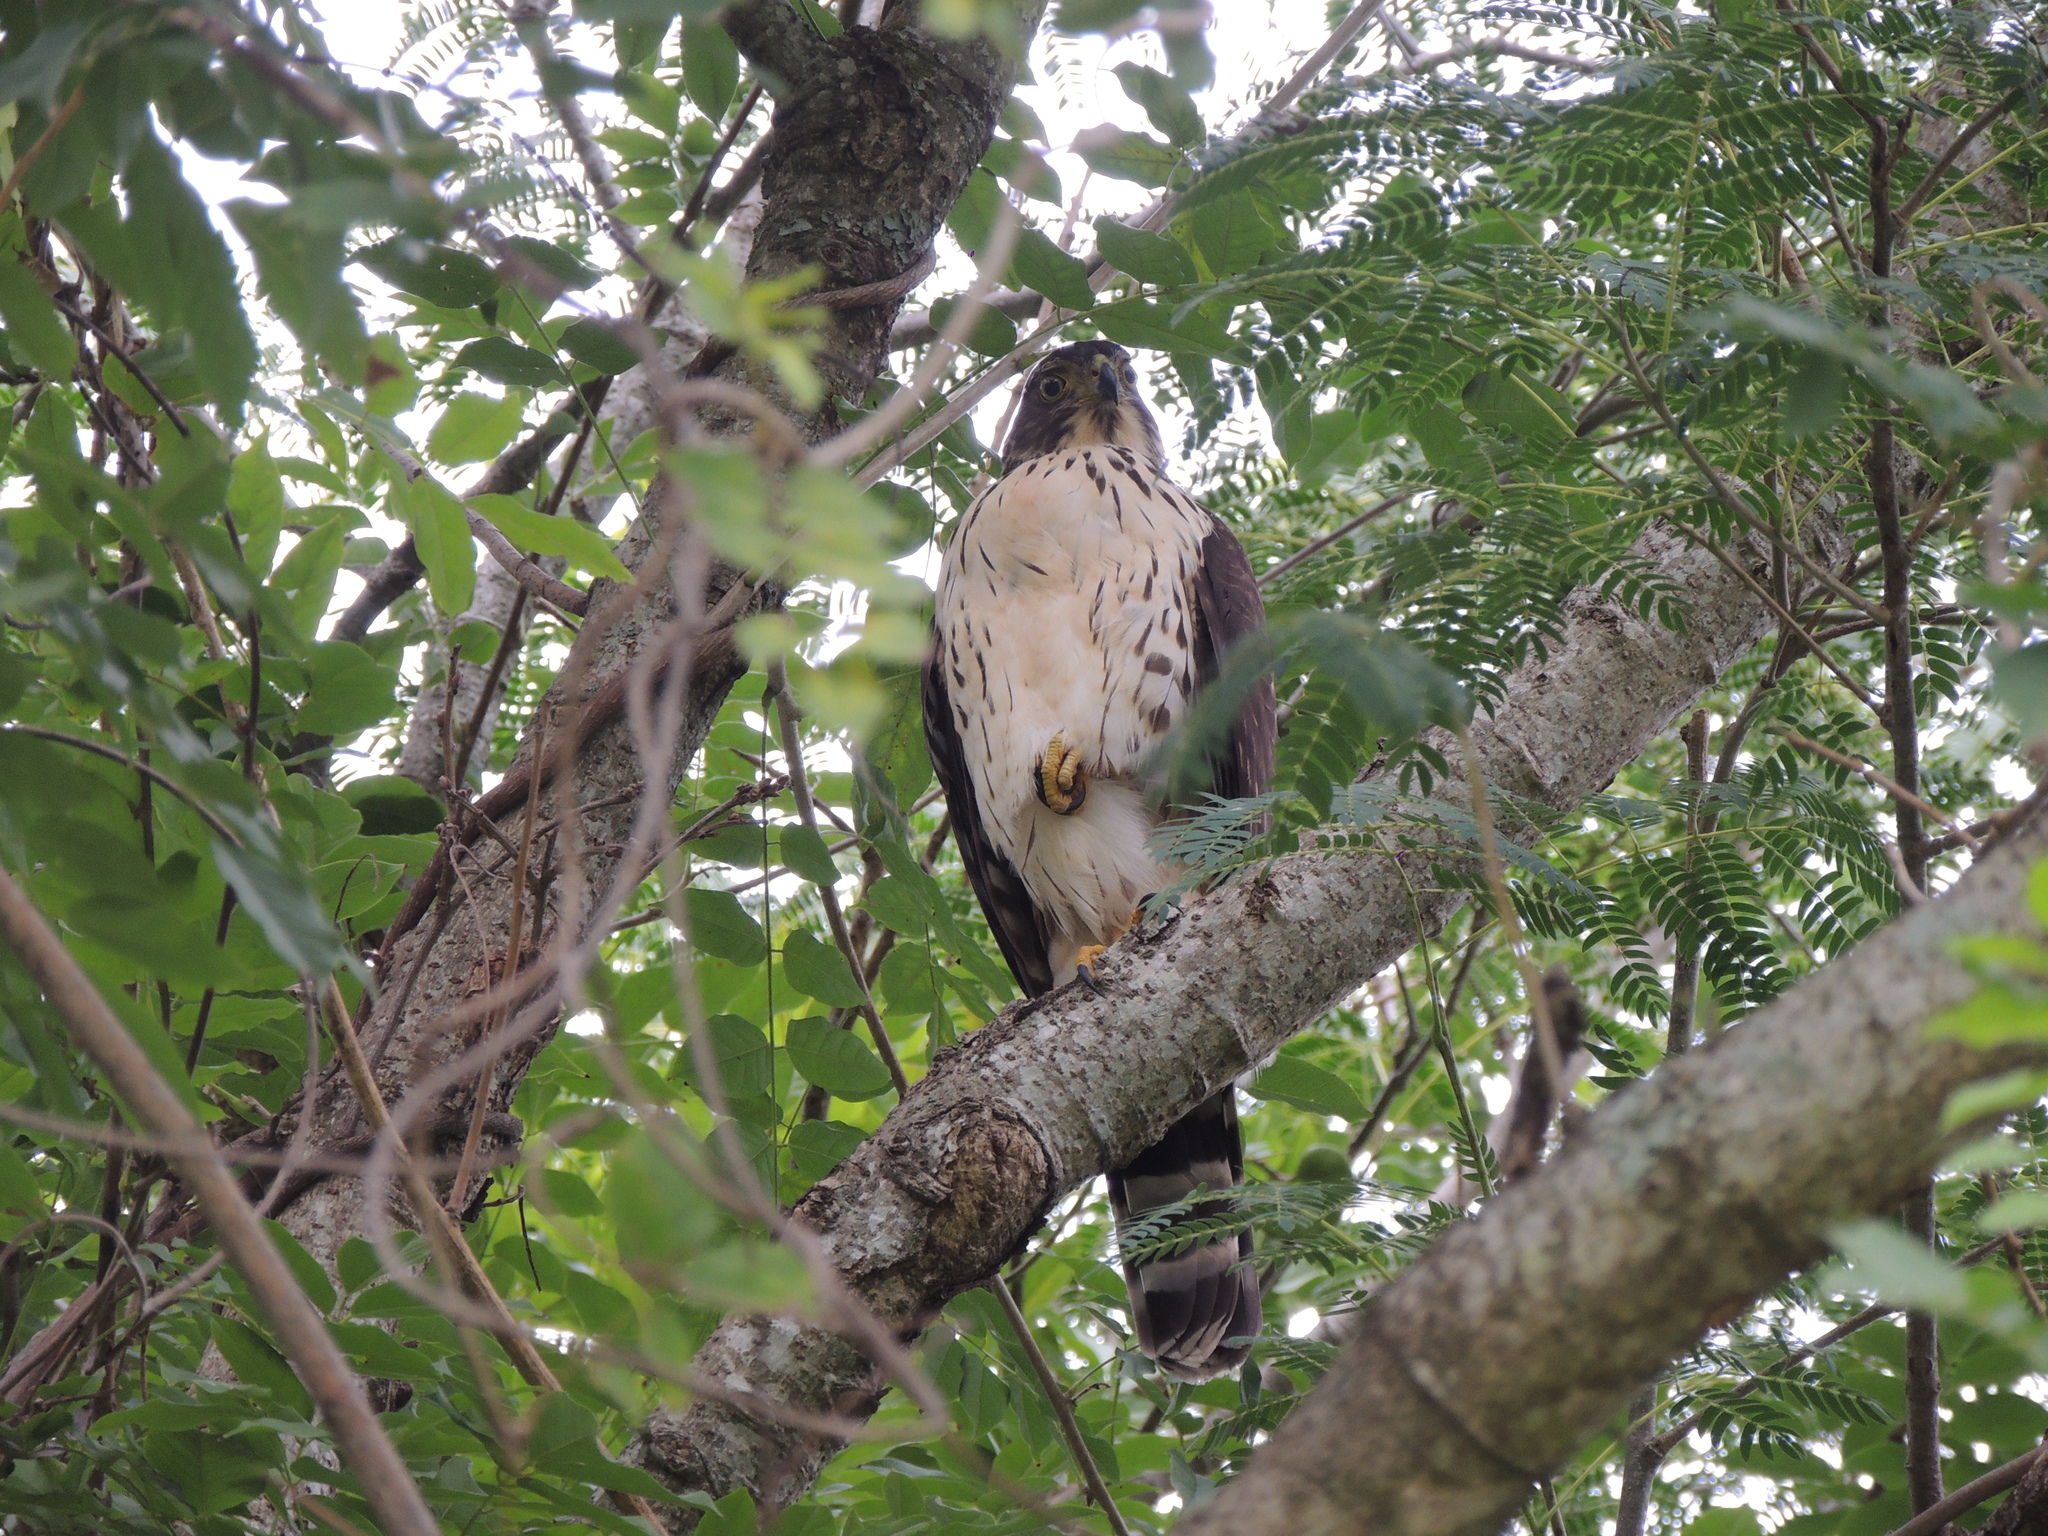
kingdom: Animalia
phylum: Chordata
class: Aves
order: Accipitriformes
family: Accipitridae
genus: Accipiter
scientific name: Accipiter bicolor
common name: Bicolored hawk
